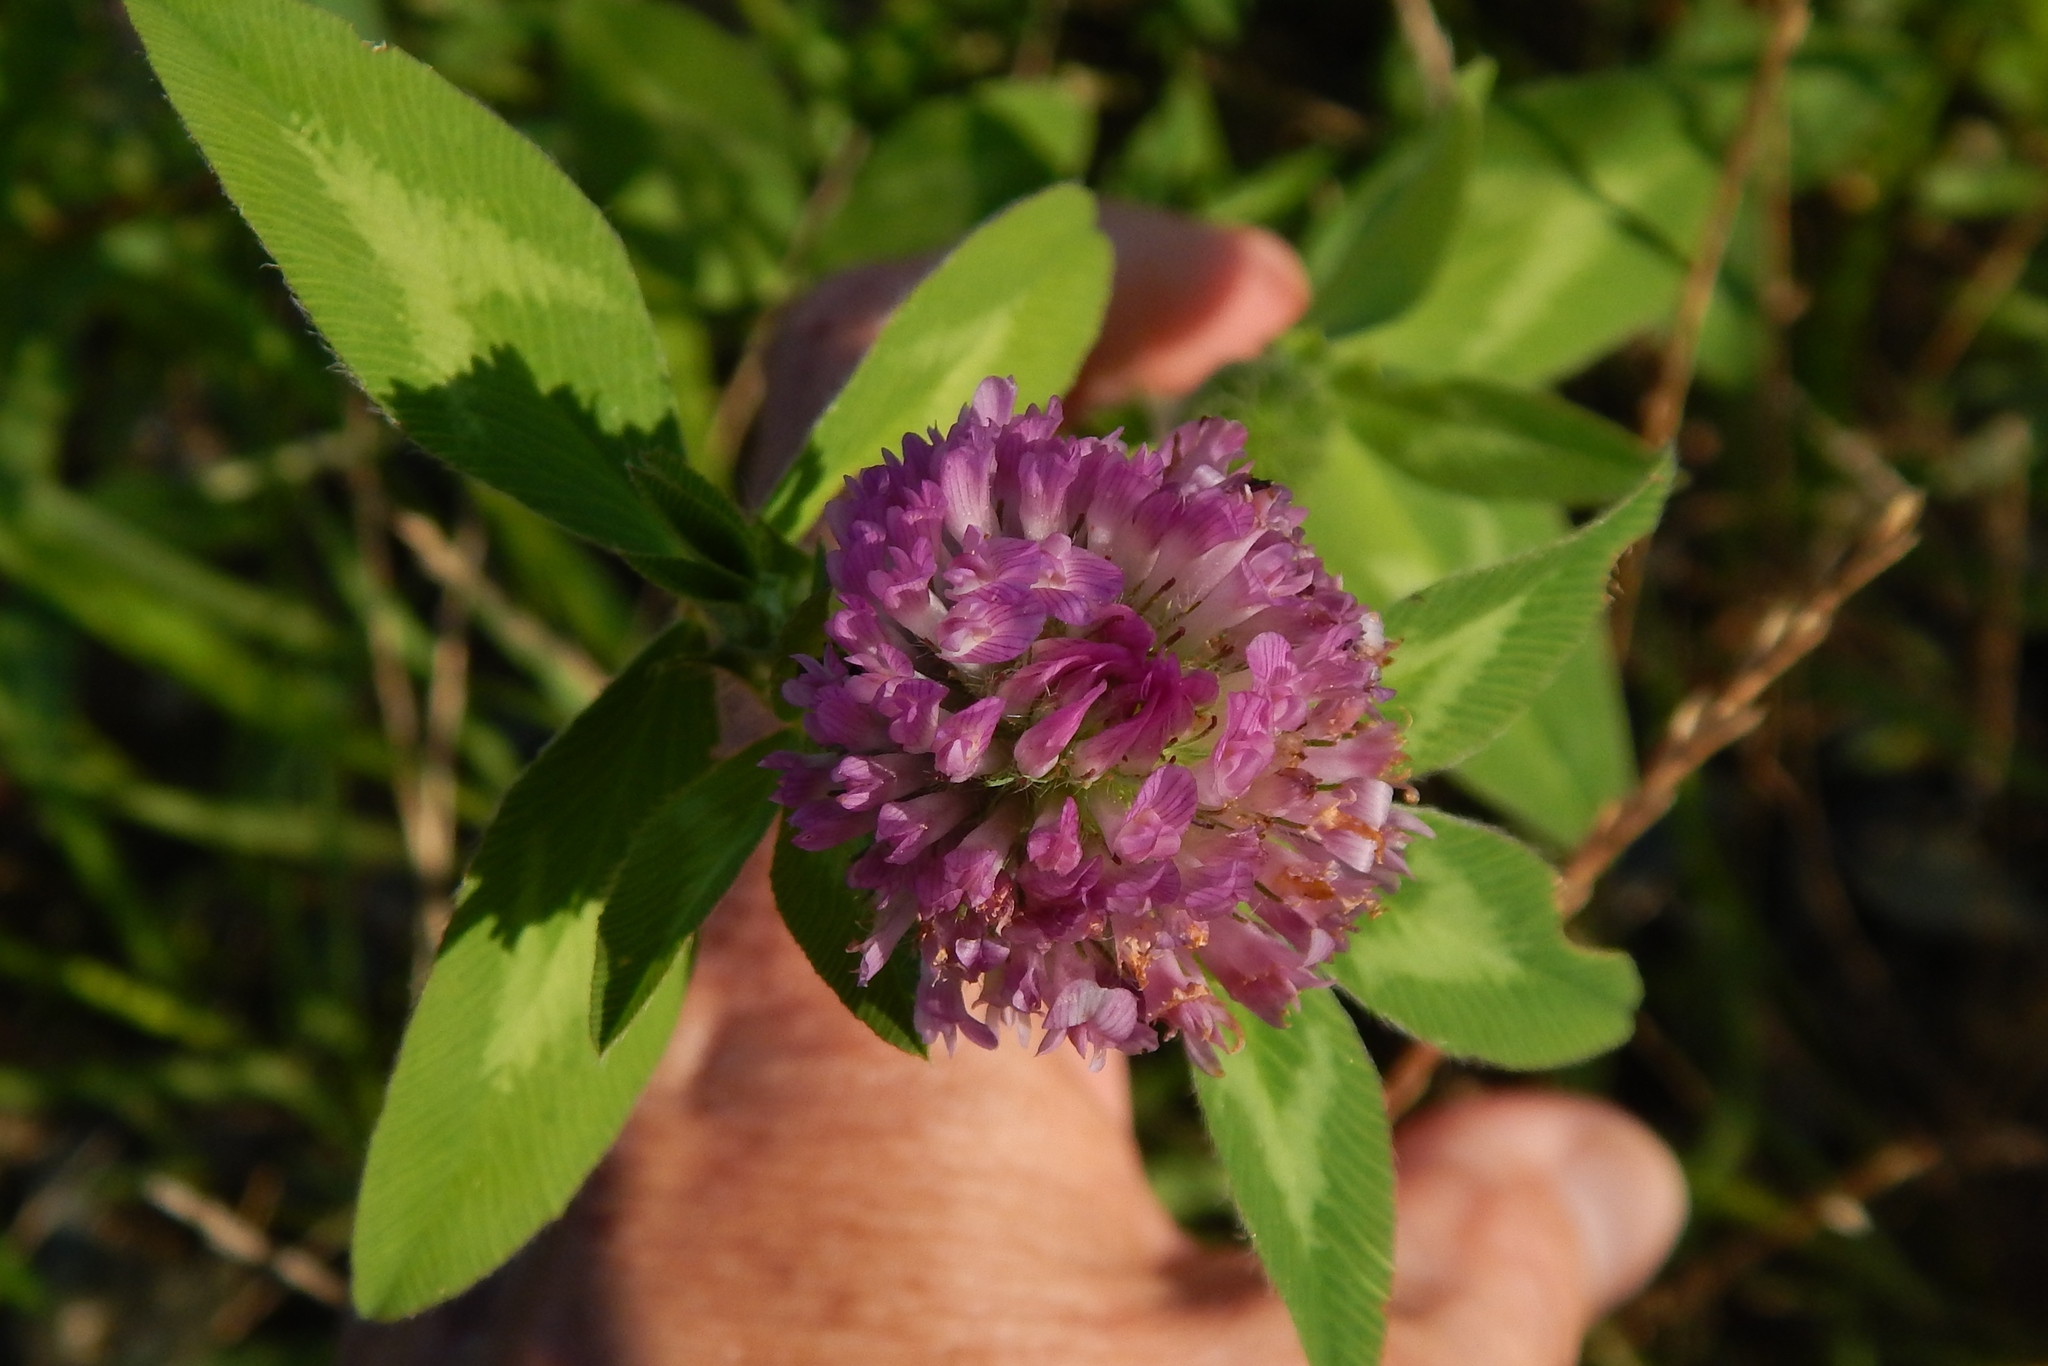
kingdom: Plantae
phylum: Tracheophyta
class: Magnoliopsida
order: Fabales
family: Fabaceae
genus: Trifolium
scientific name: Trifolium pratense
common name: Red clover
